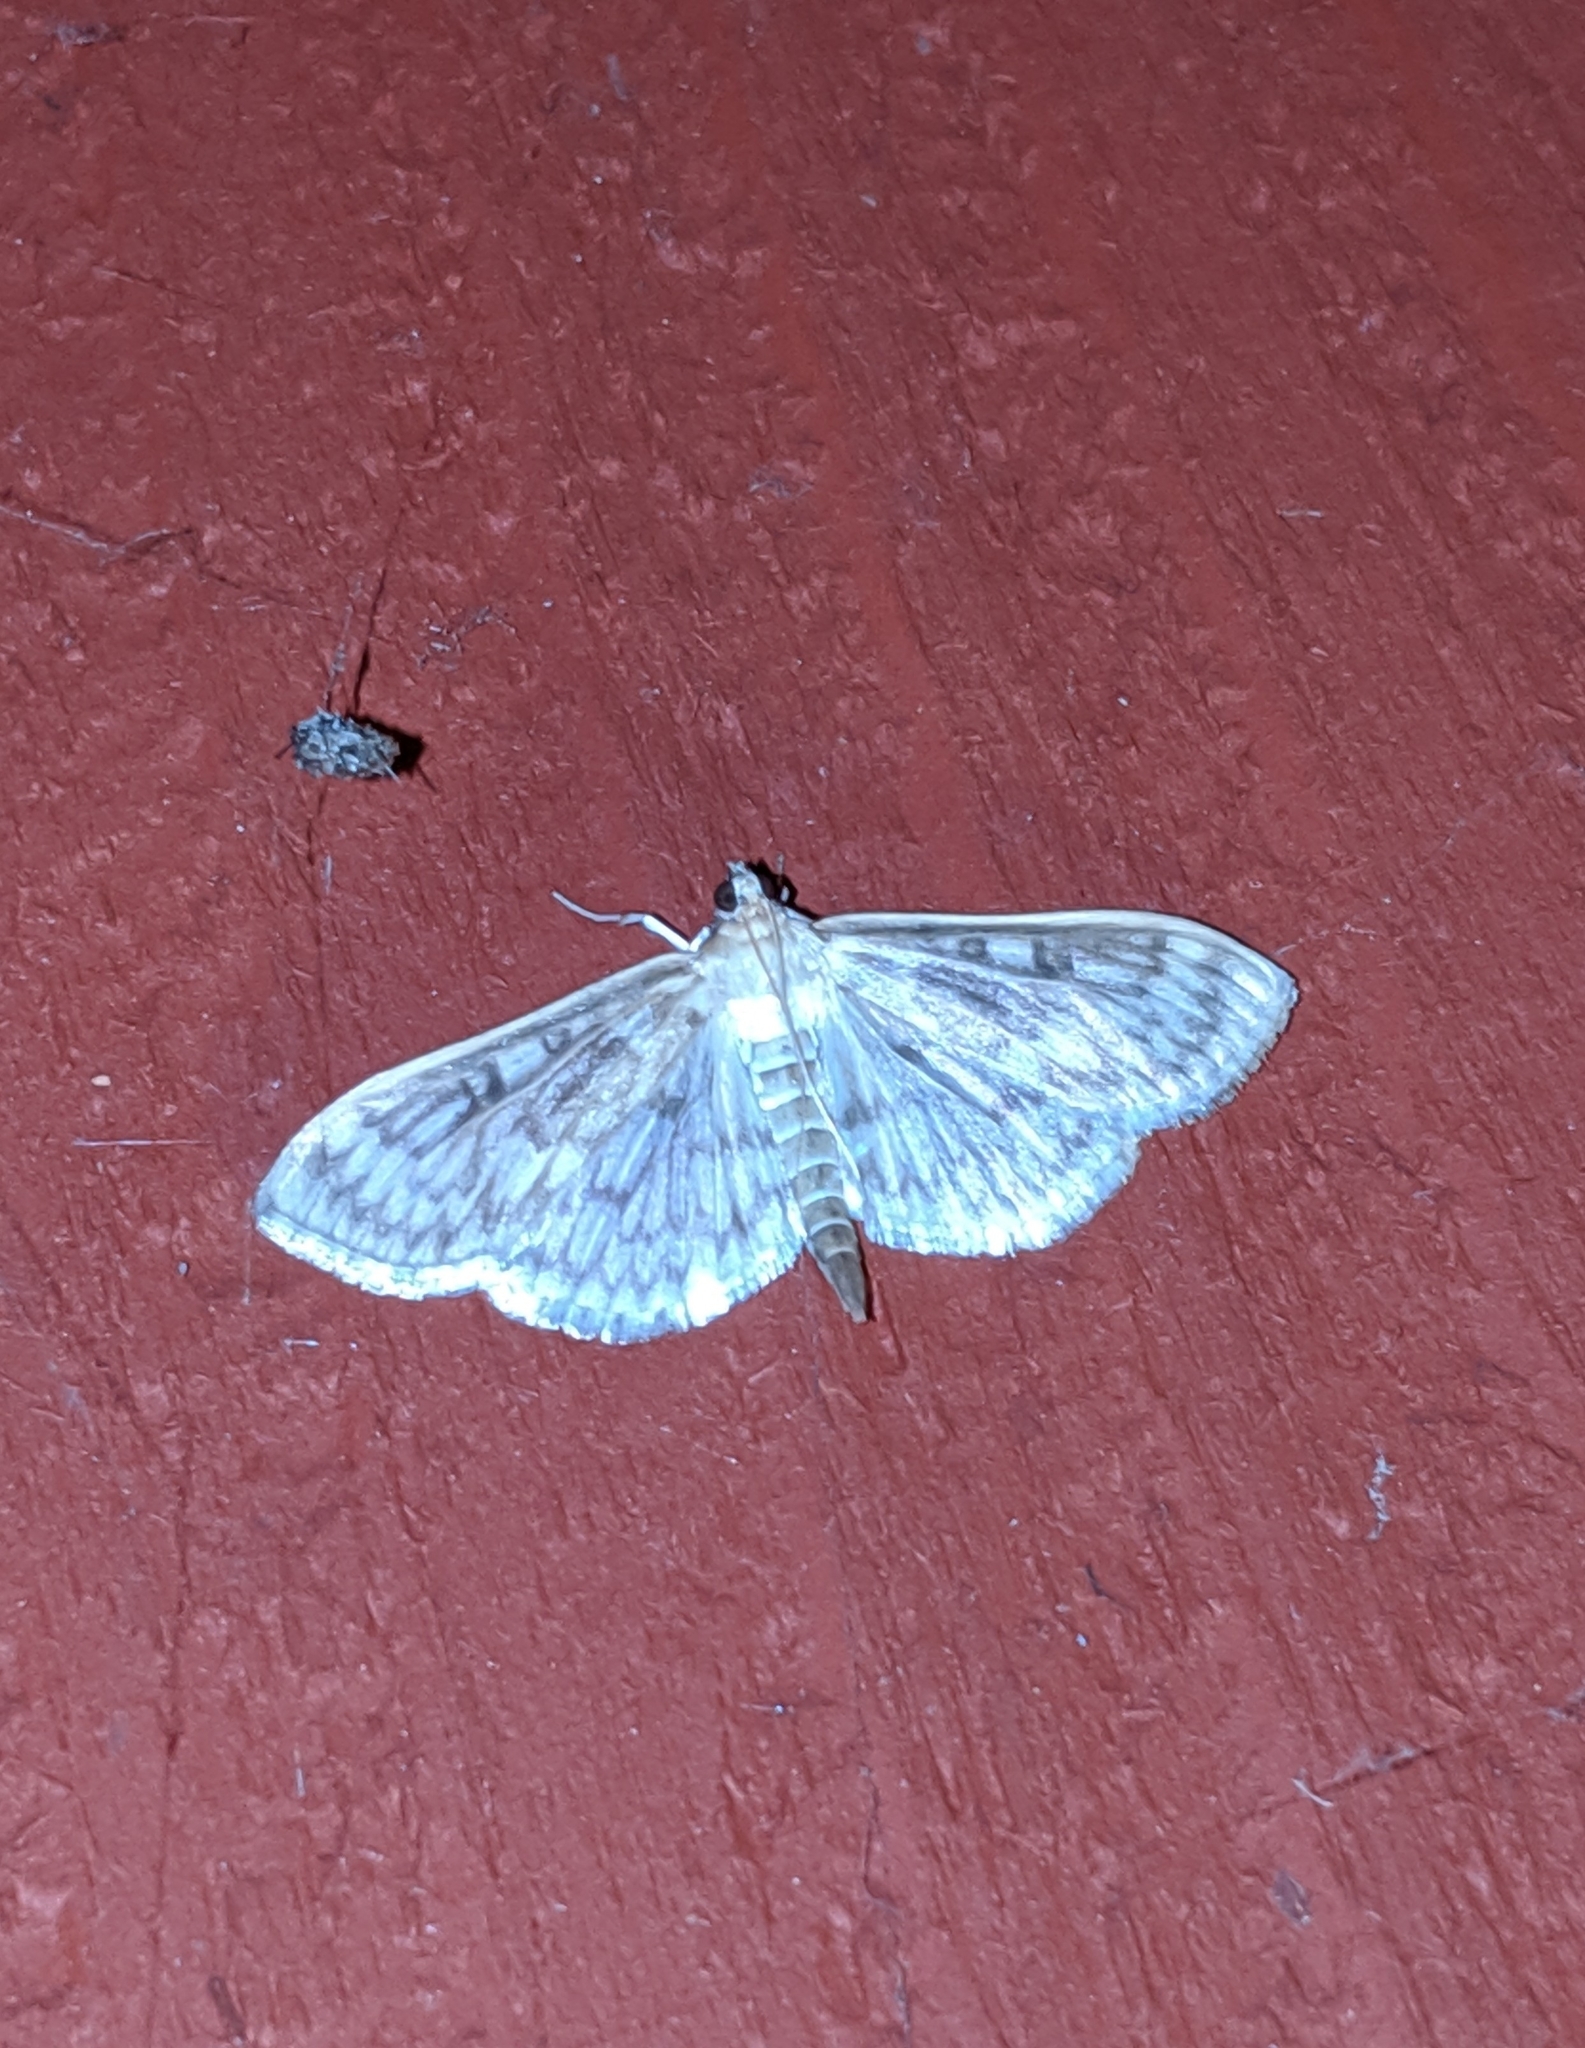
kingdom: Animalia
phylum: Arthropoda
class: Insecta
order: Lepidoptera
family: Crambidae
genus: Herpetogramma
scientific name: Herpetogramma aquilonalis
